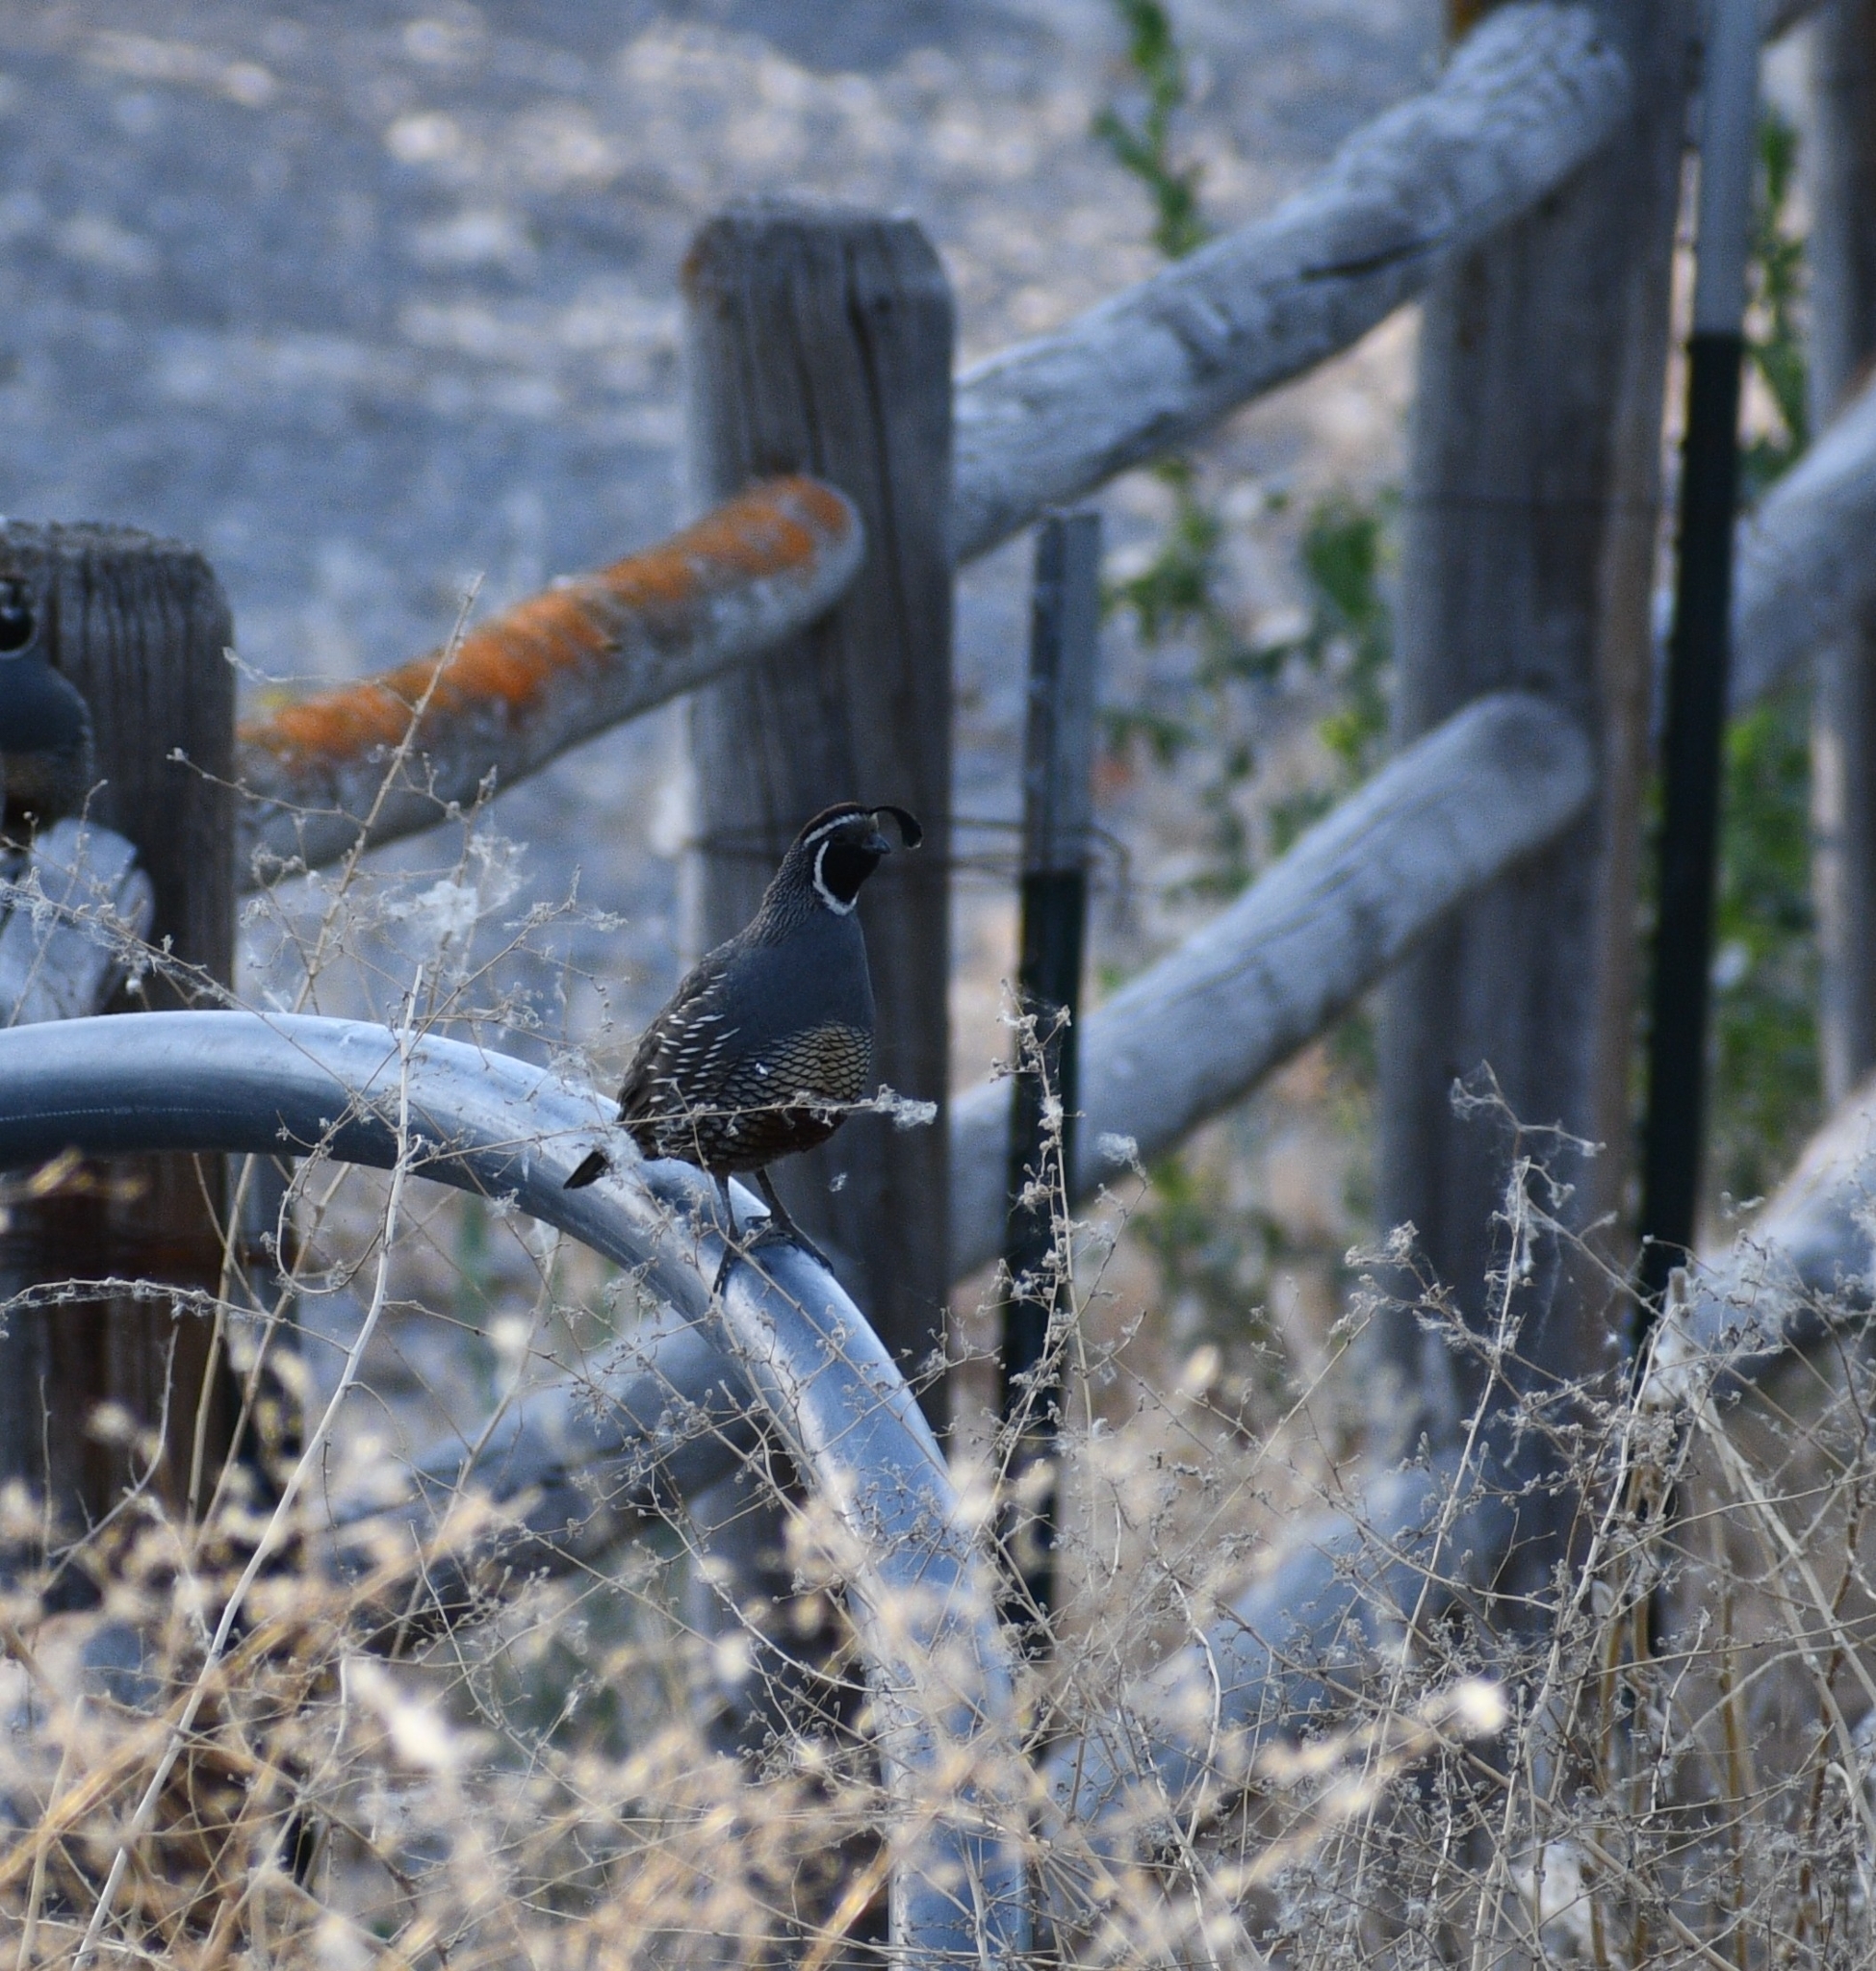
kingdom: Animalia
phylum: Chordata
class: Aves
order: Galliformes
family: Odontophoridae
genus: Callipepla
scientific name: Callipepla californica
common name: California quail
